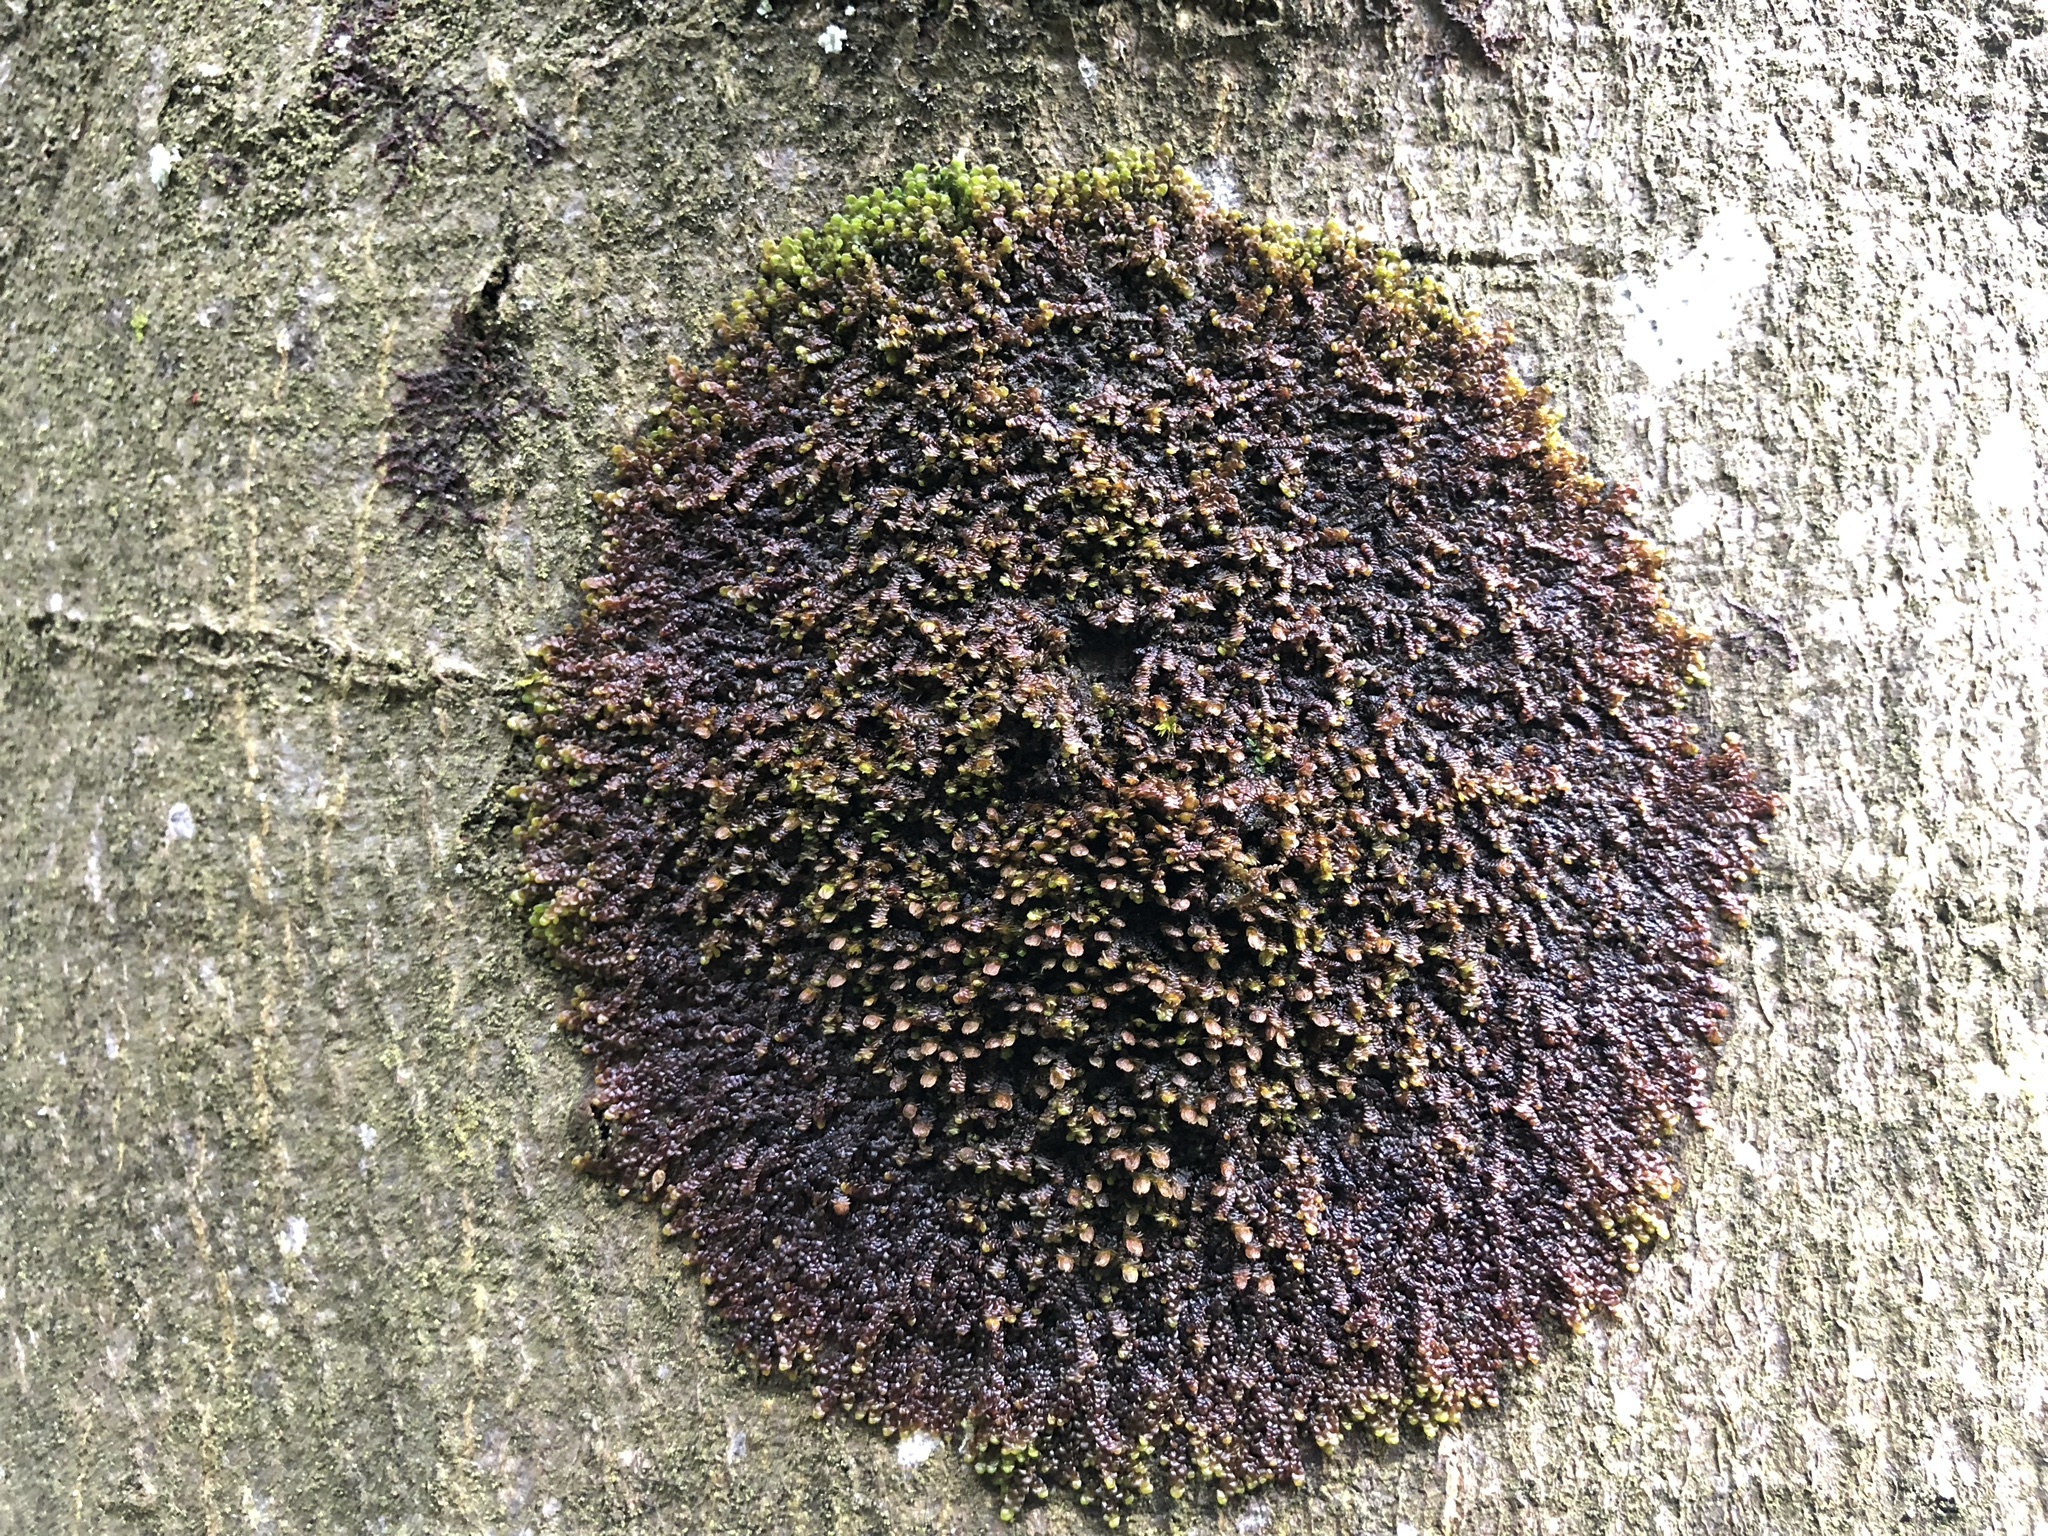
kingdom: Plantae
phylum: Marchantiophyta
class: Jungermanniopsida
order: Porellales
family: Frullaniaceae
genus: Frullania
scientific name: Frullania dilatata
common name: Dilated scalewort
